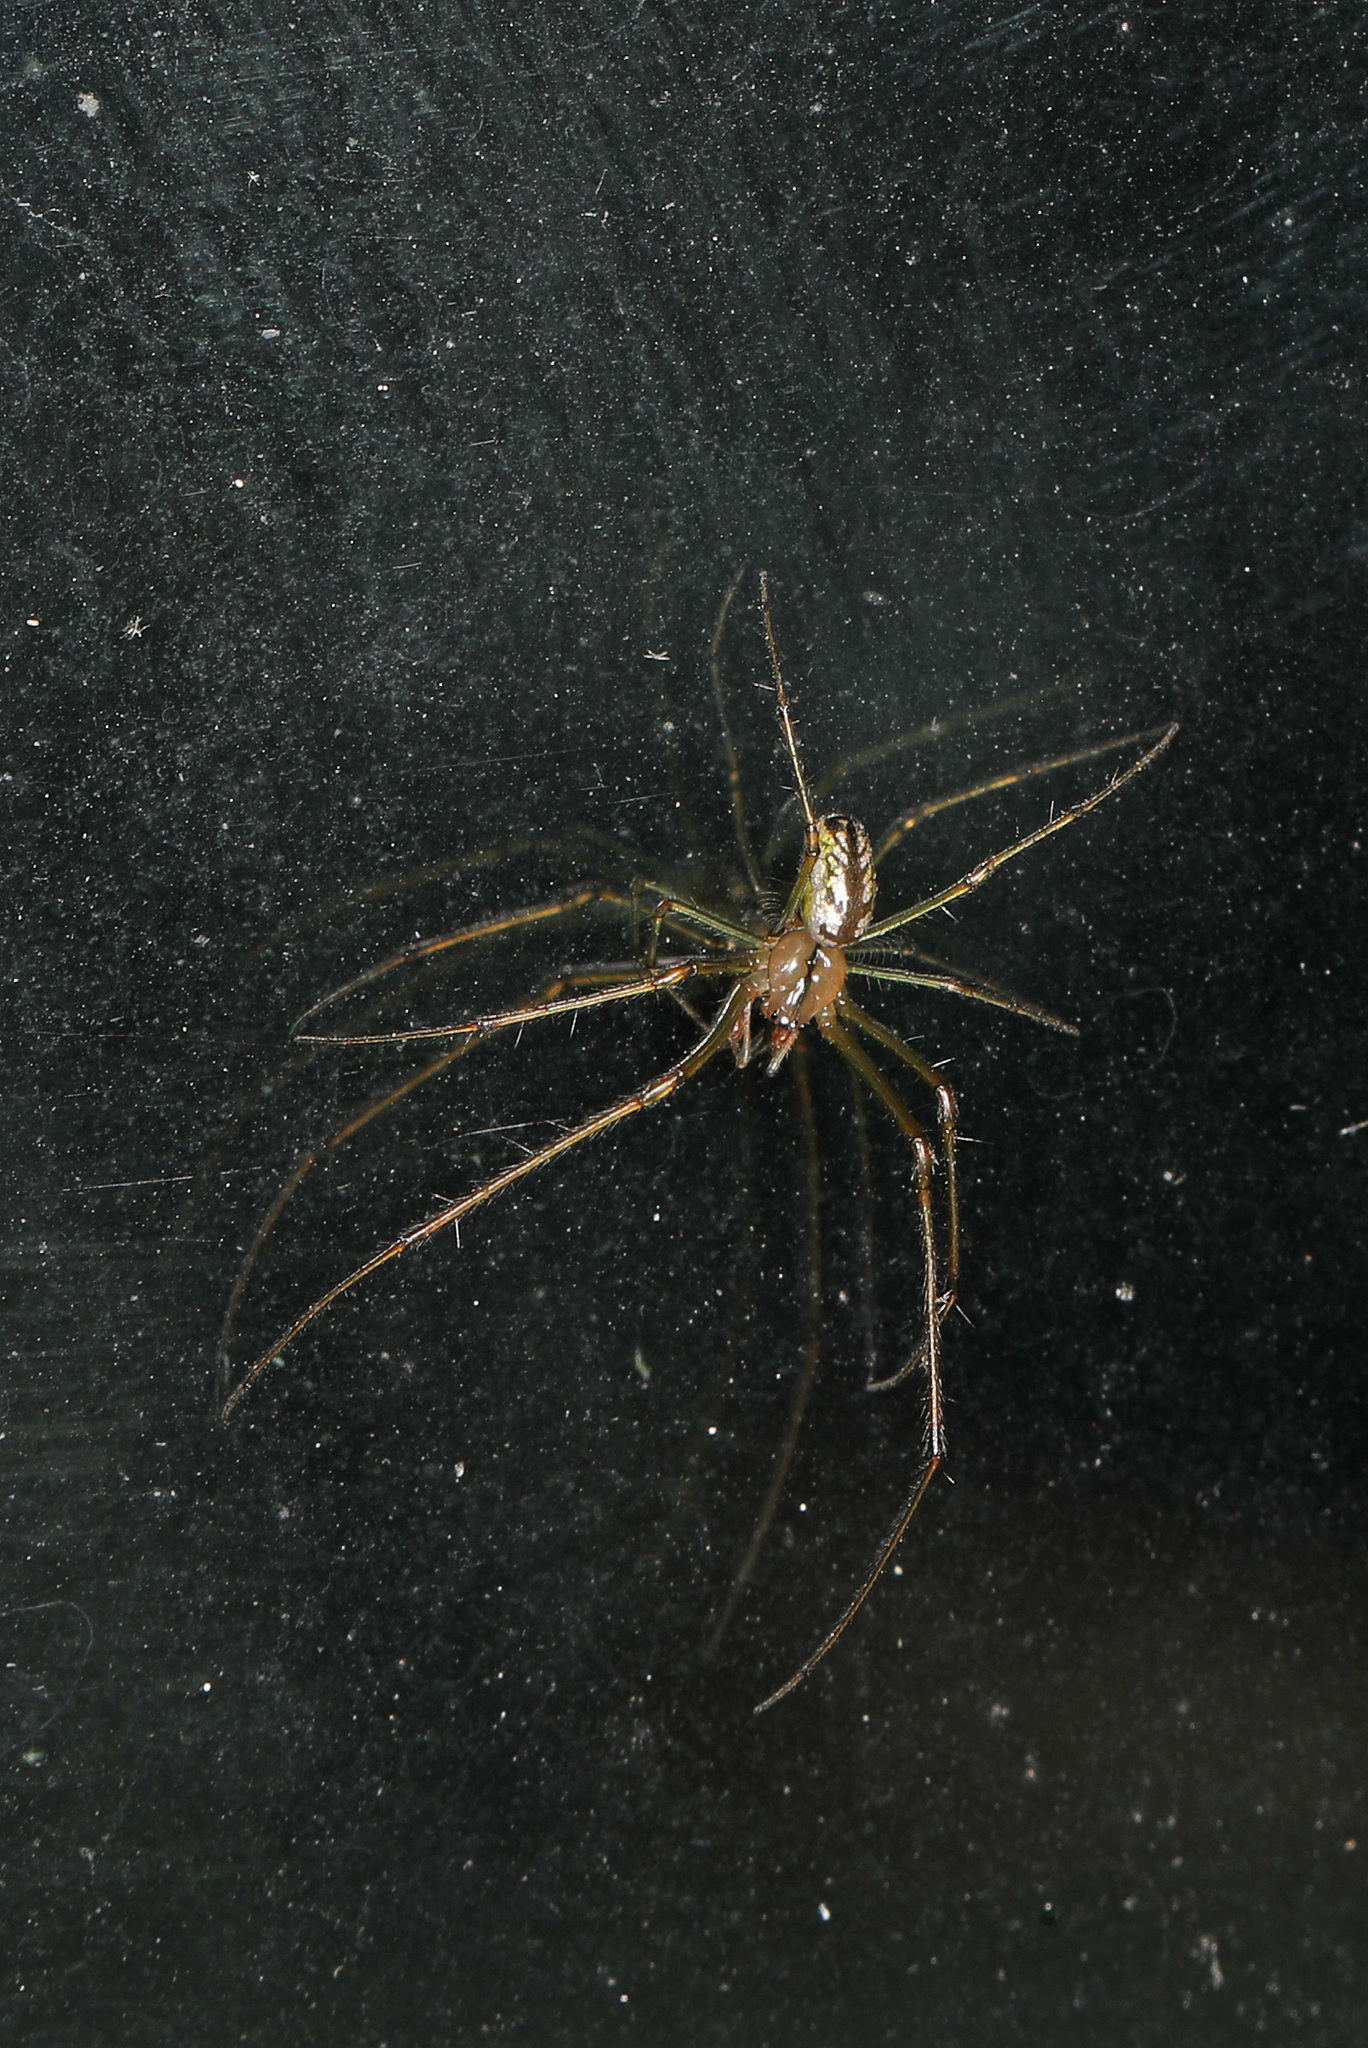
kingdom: Animalia
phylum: Arthropoda
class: Arachnida
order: Araneae
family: Tetragnathidae
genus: Leucauge
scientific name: Leucauge venusta
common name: Longjawed orb weavers
